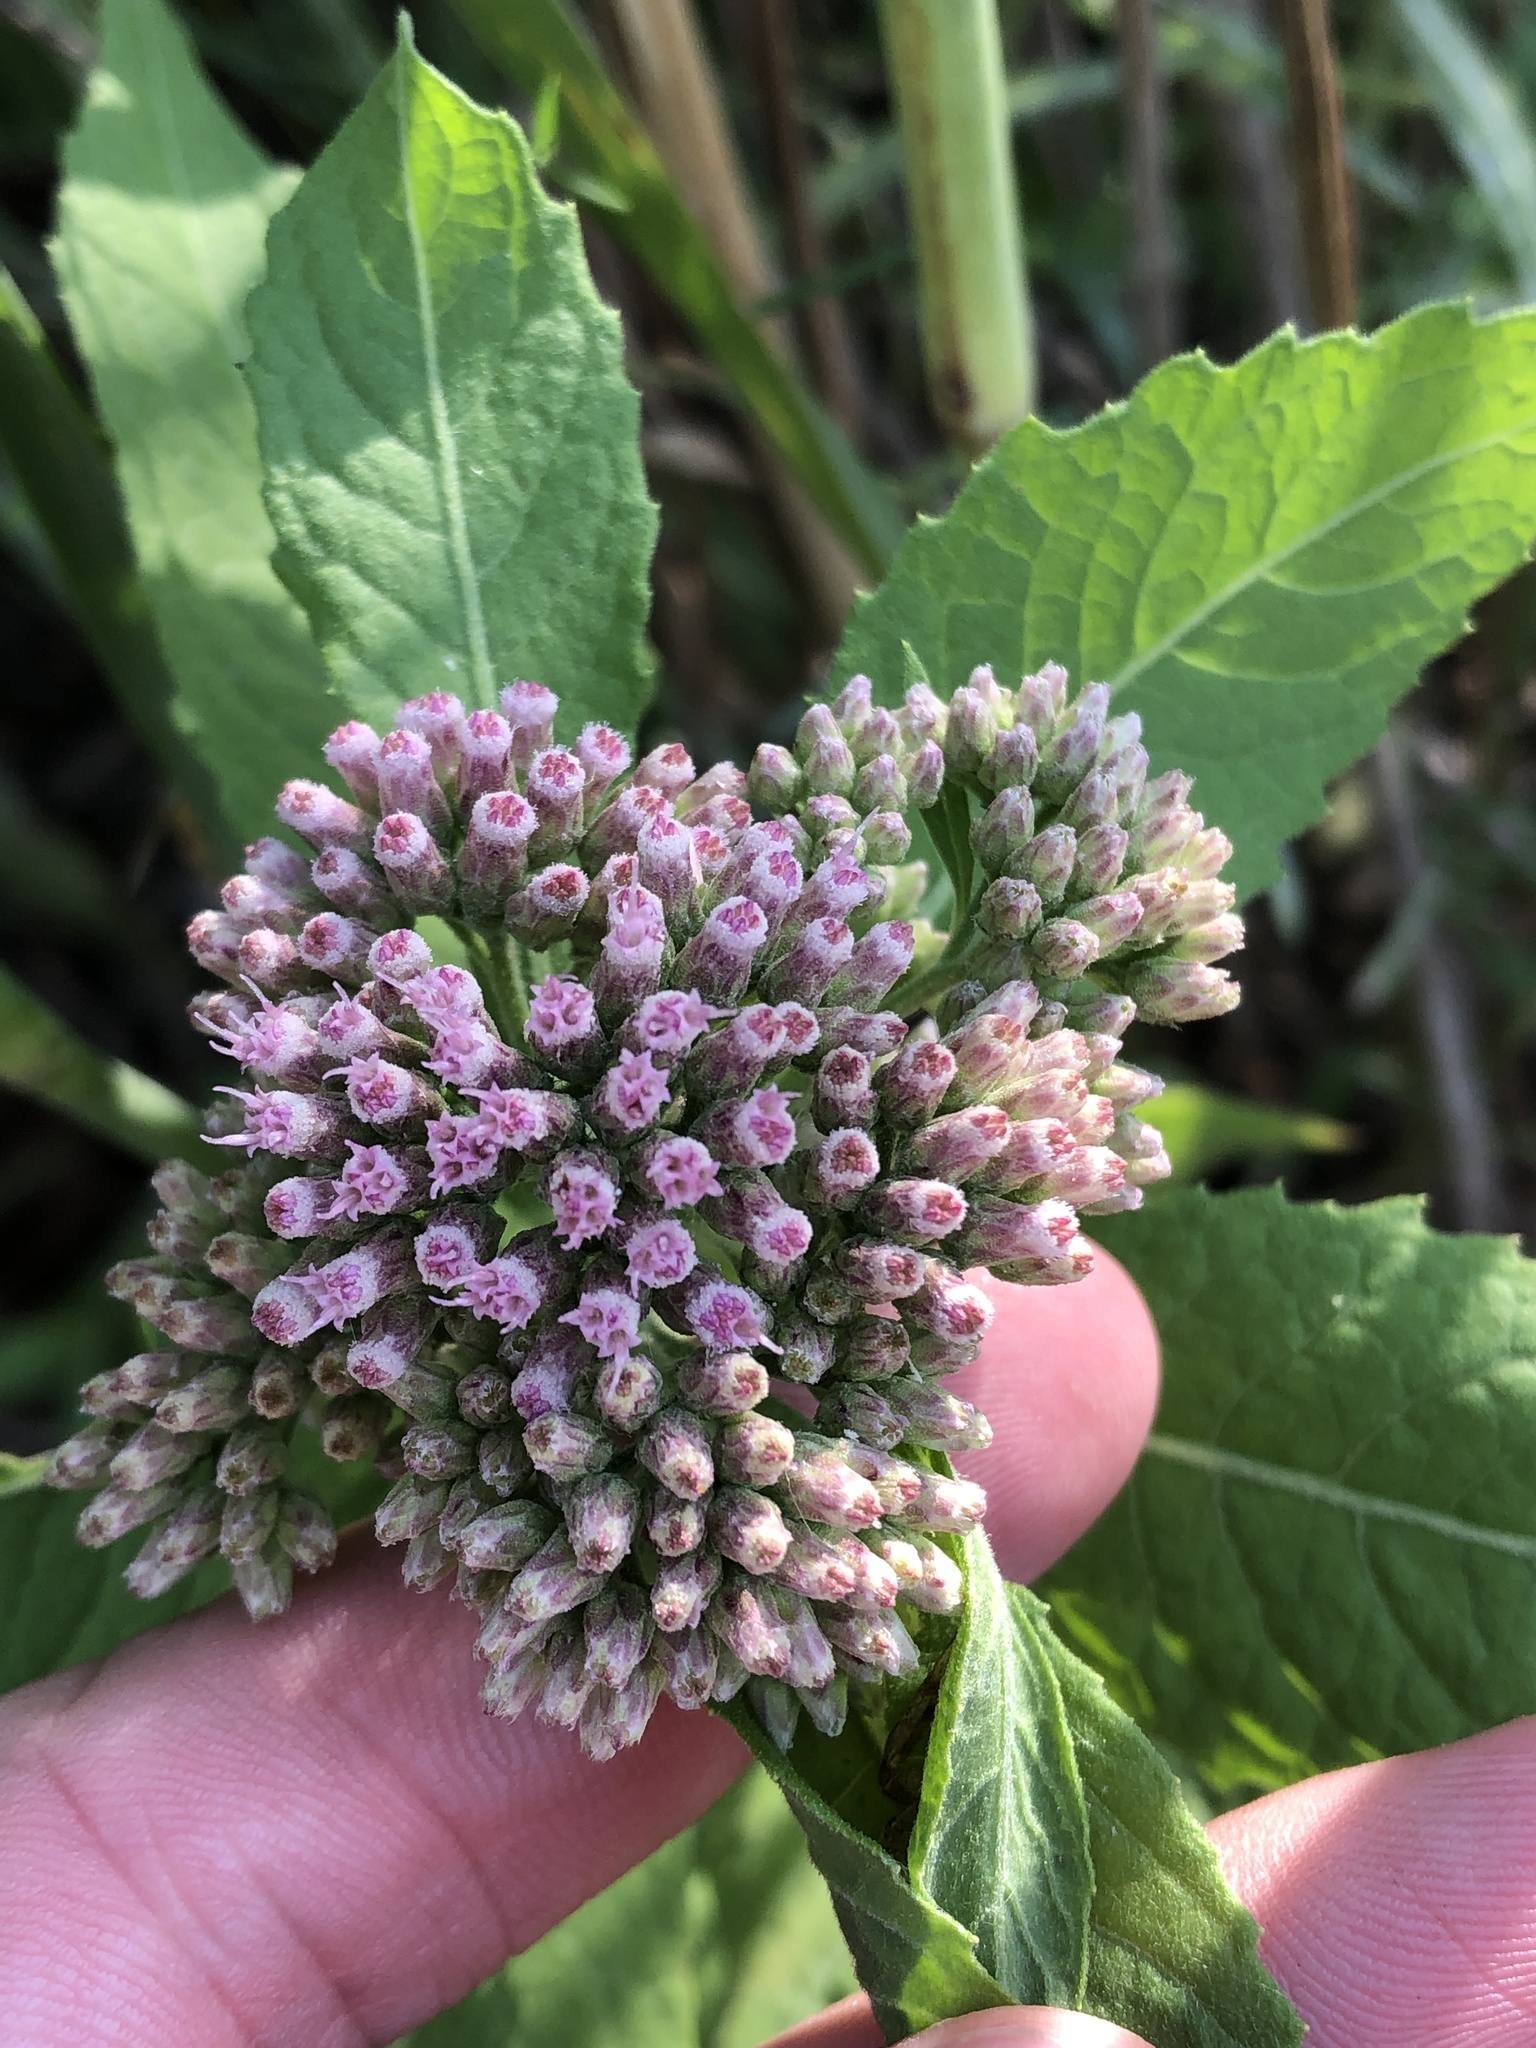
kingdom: Plantae
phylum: Tracheophyta
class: Magnoliopsida
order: Asterales
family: Asteraceae
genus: Pluchea
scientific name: Pluchea camphorata
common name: Camphor pluchea
